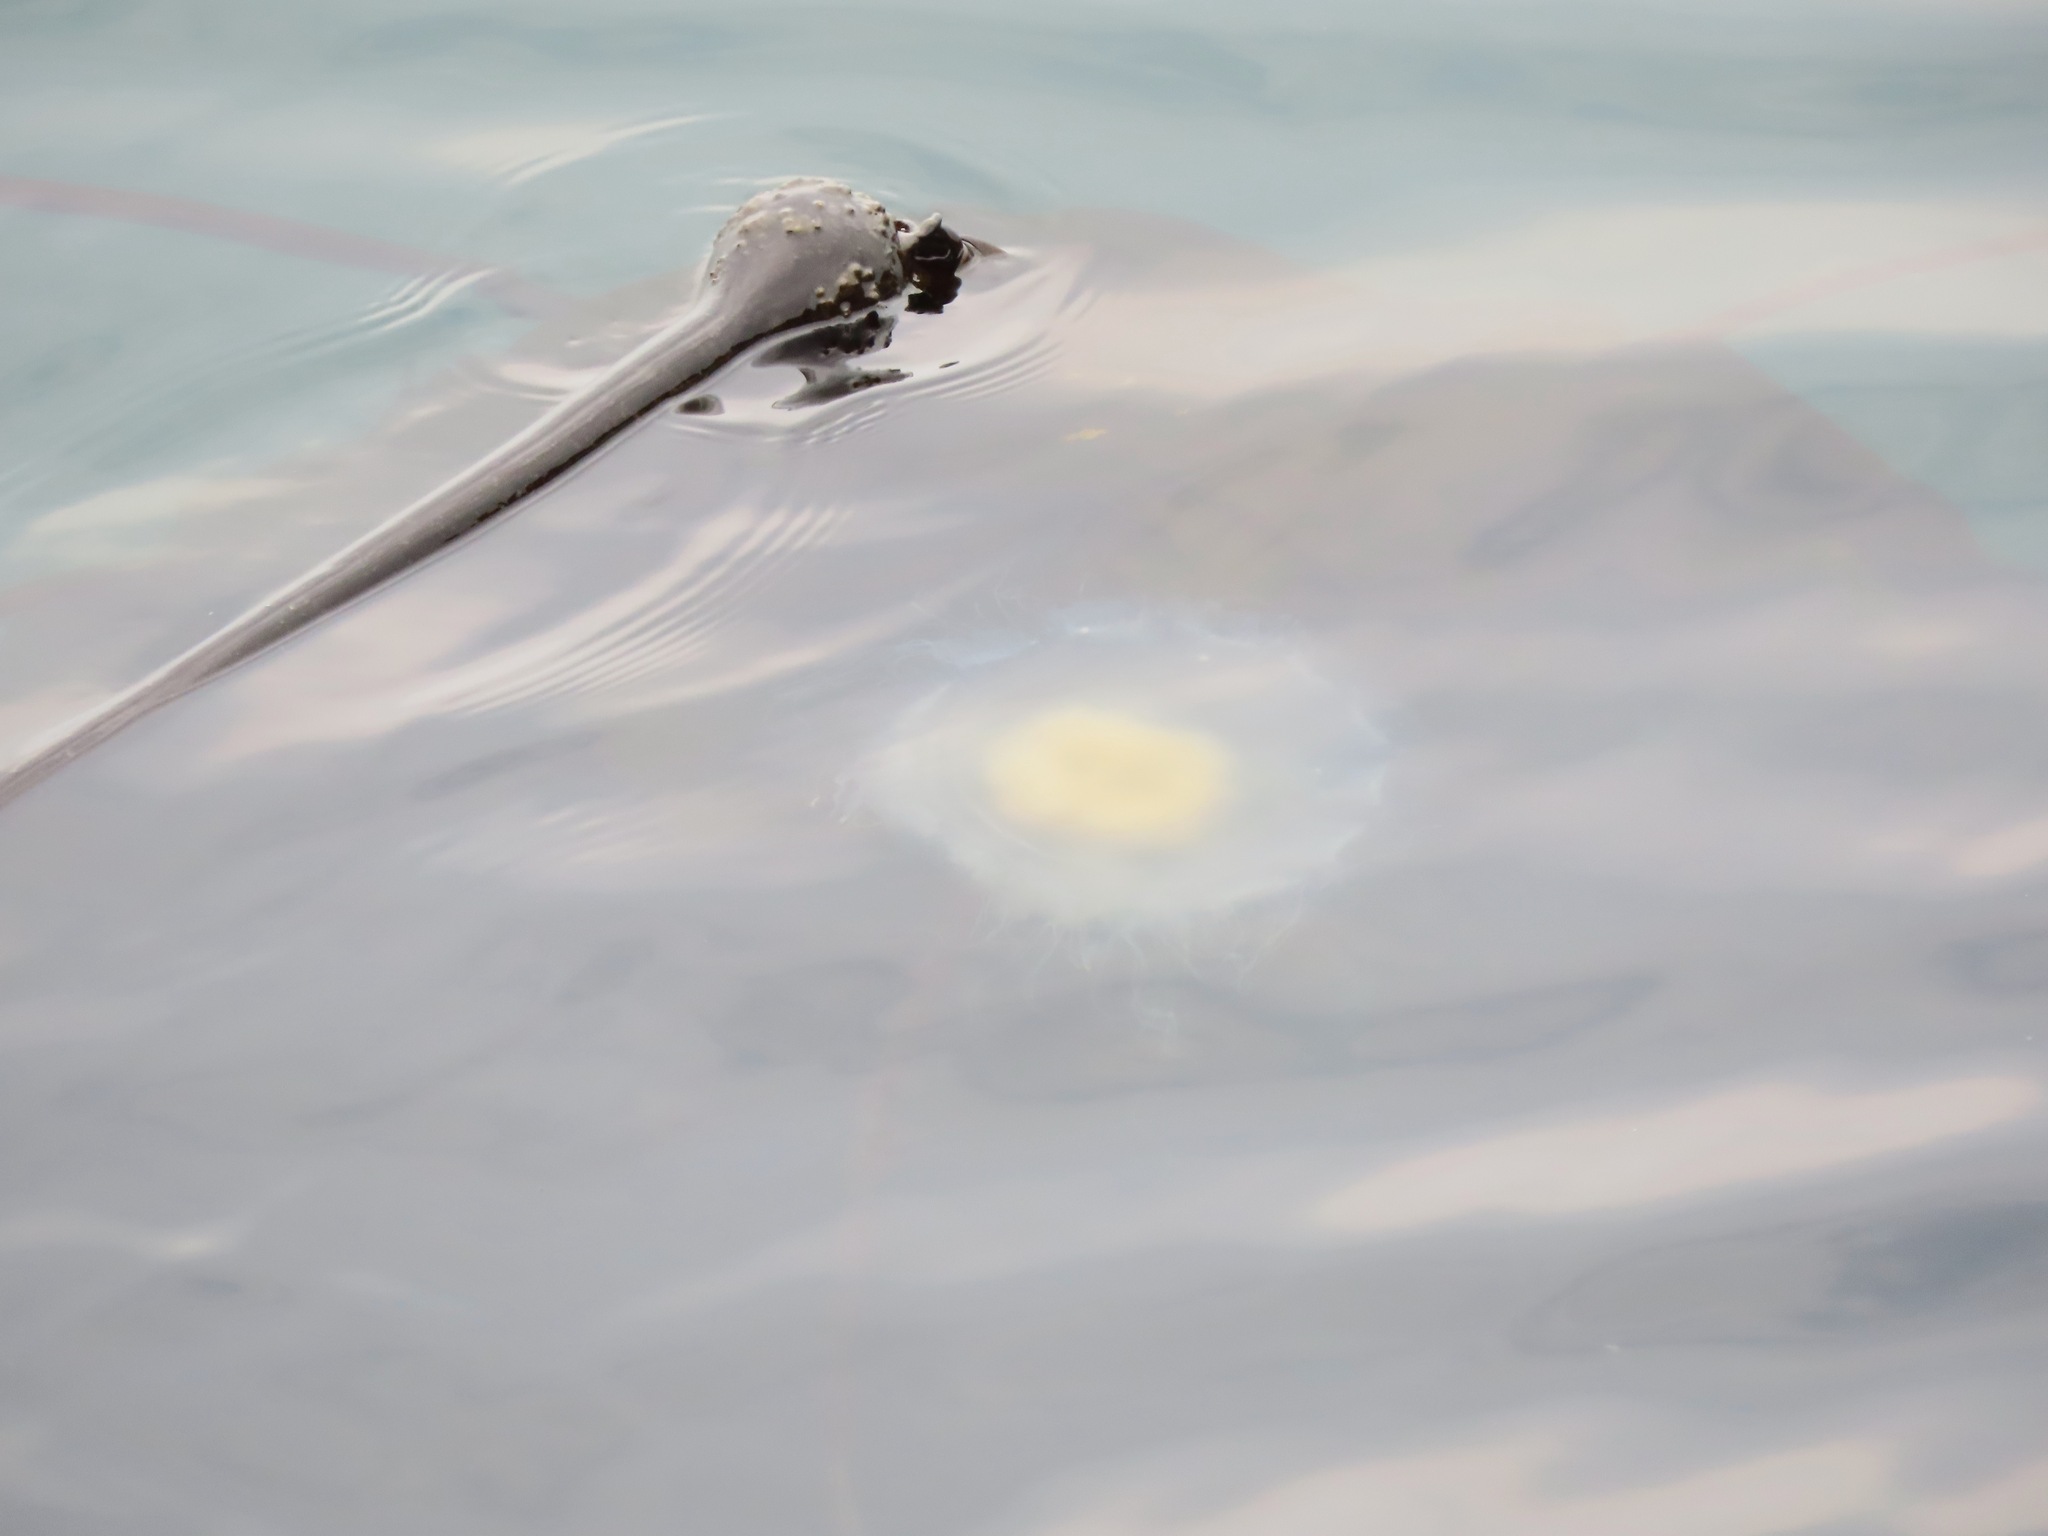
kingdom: Animalia
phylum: Cnidaria
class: Scyphozoa
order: Semaeostomeae
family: Phacellophoridae
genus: Phacellophora
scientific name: Phacellophora camtschatica
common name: Fried-egg jellyfish
